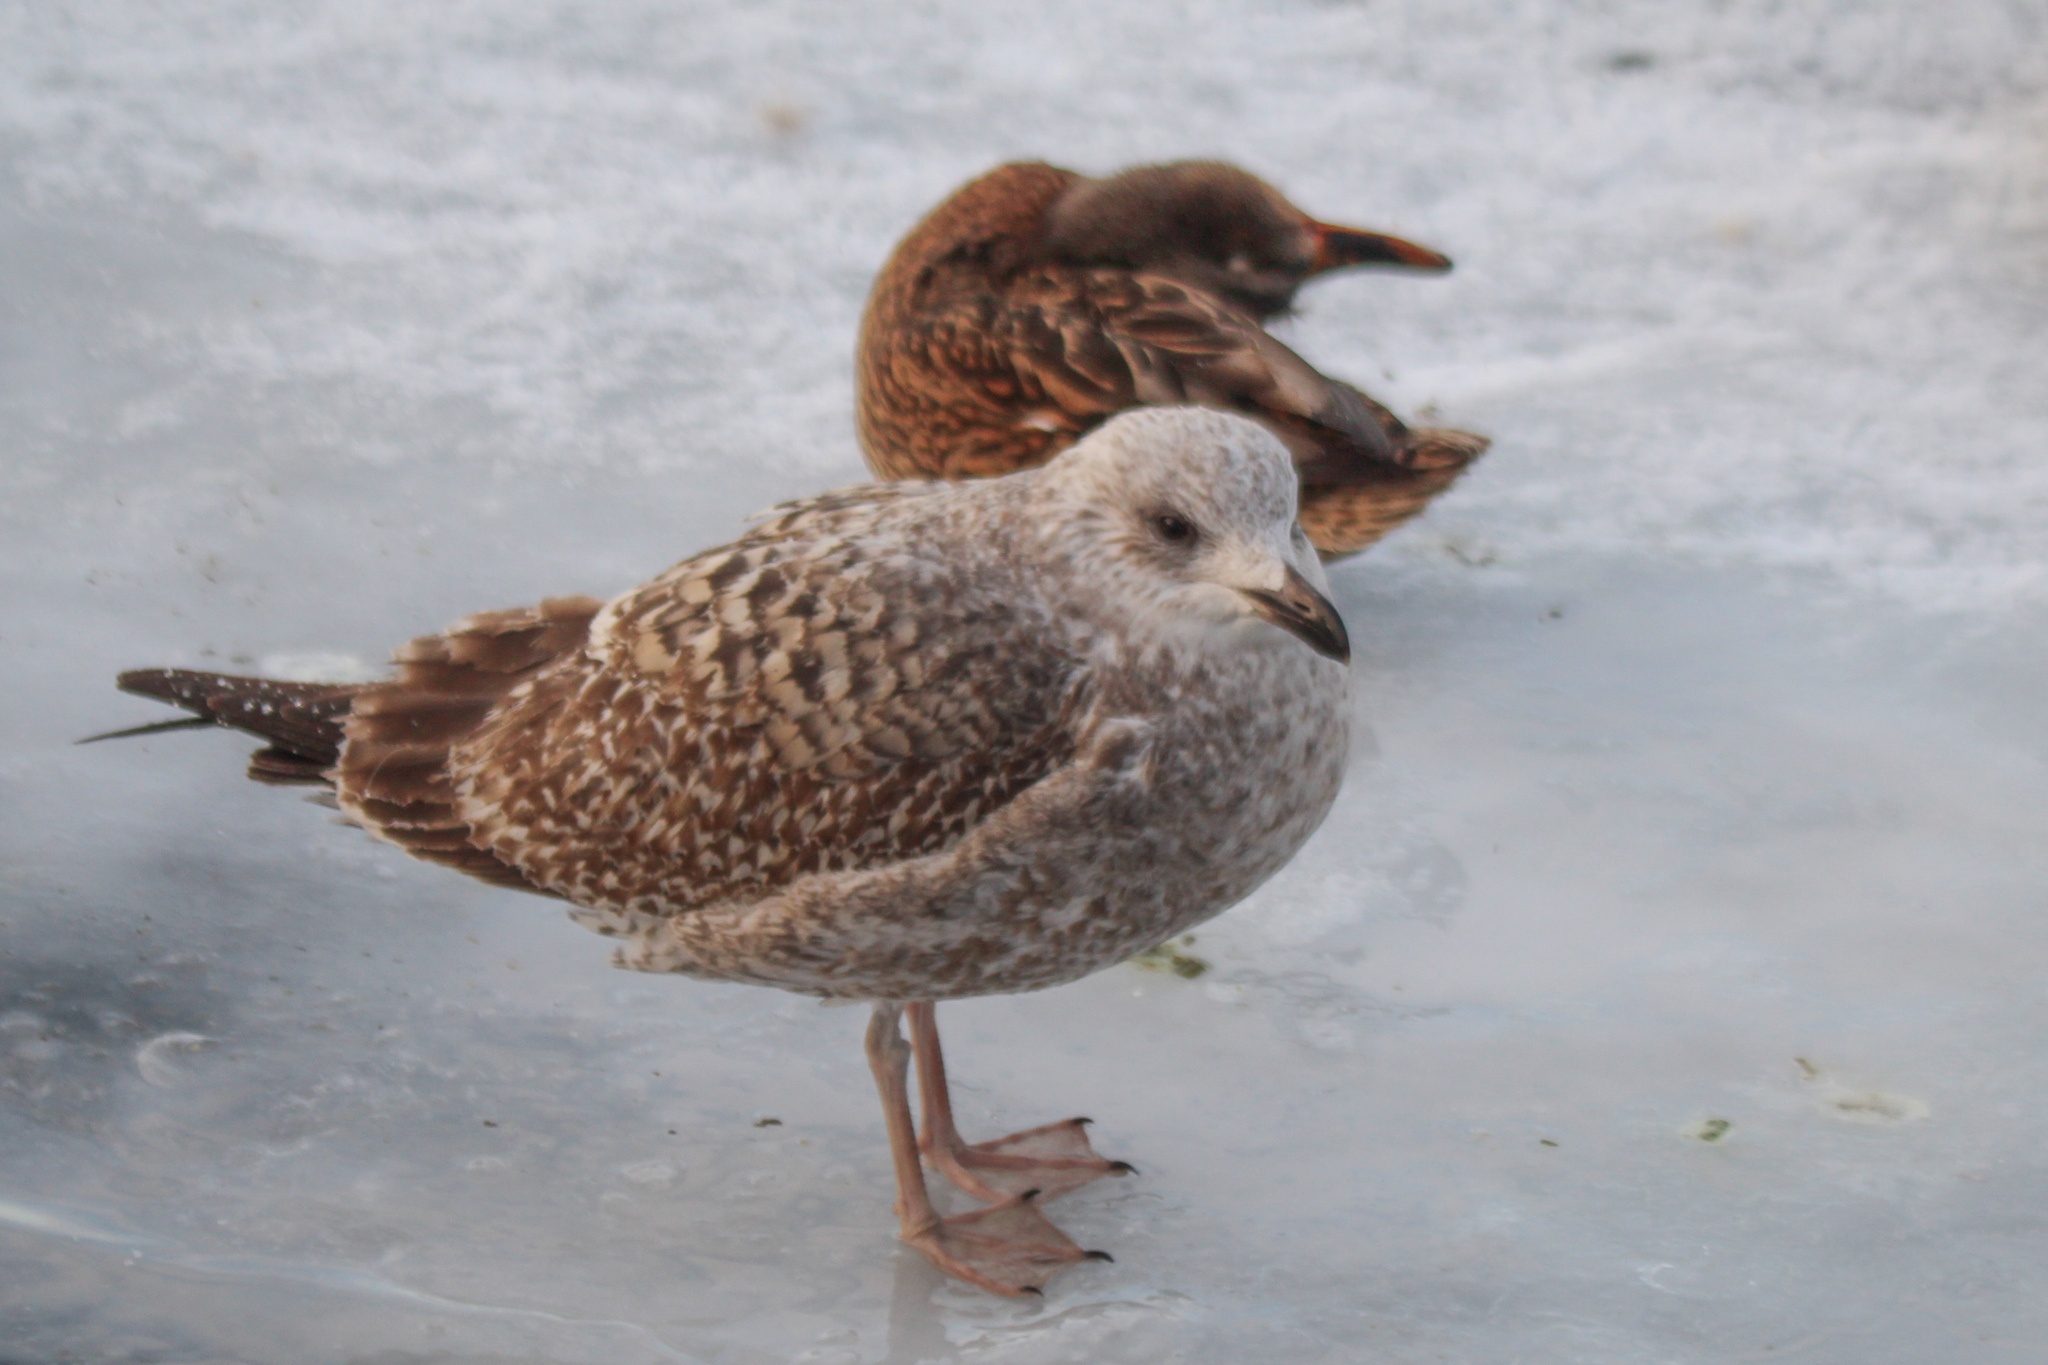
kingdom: Animalia
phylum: Chordata
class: Aves
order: Charadriiformes
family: Laridae
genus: Larus
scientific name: Larus argentatus
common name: Herring gull
